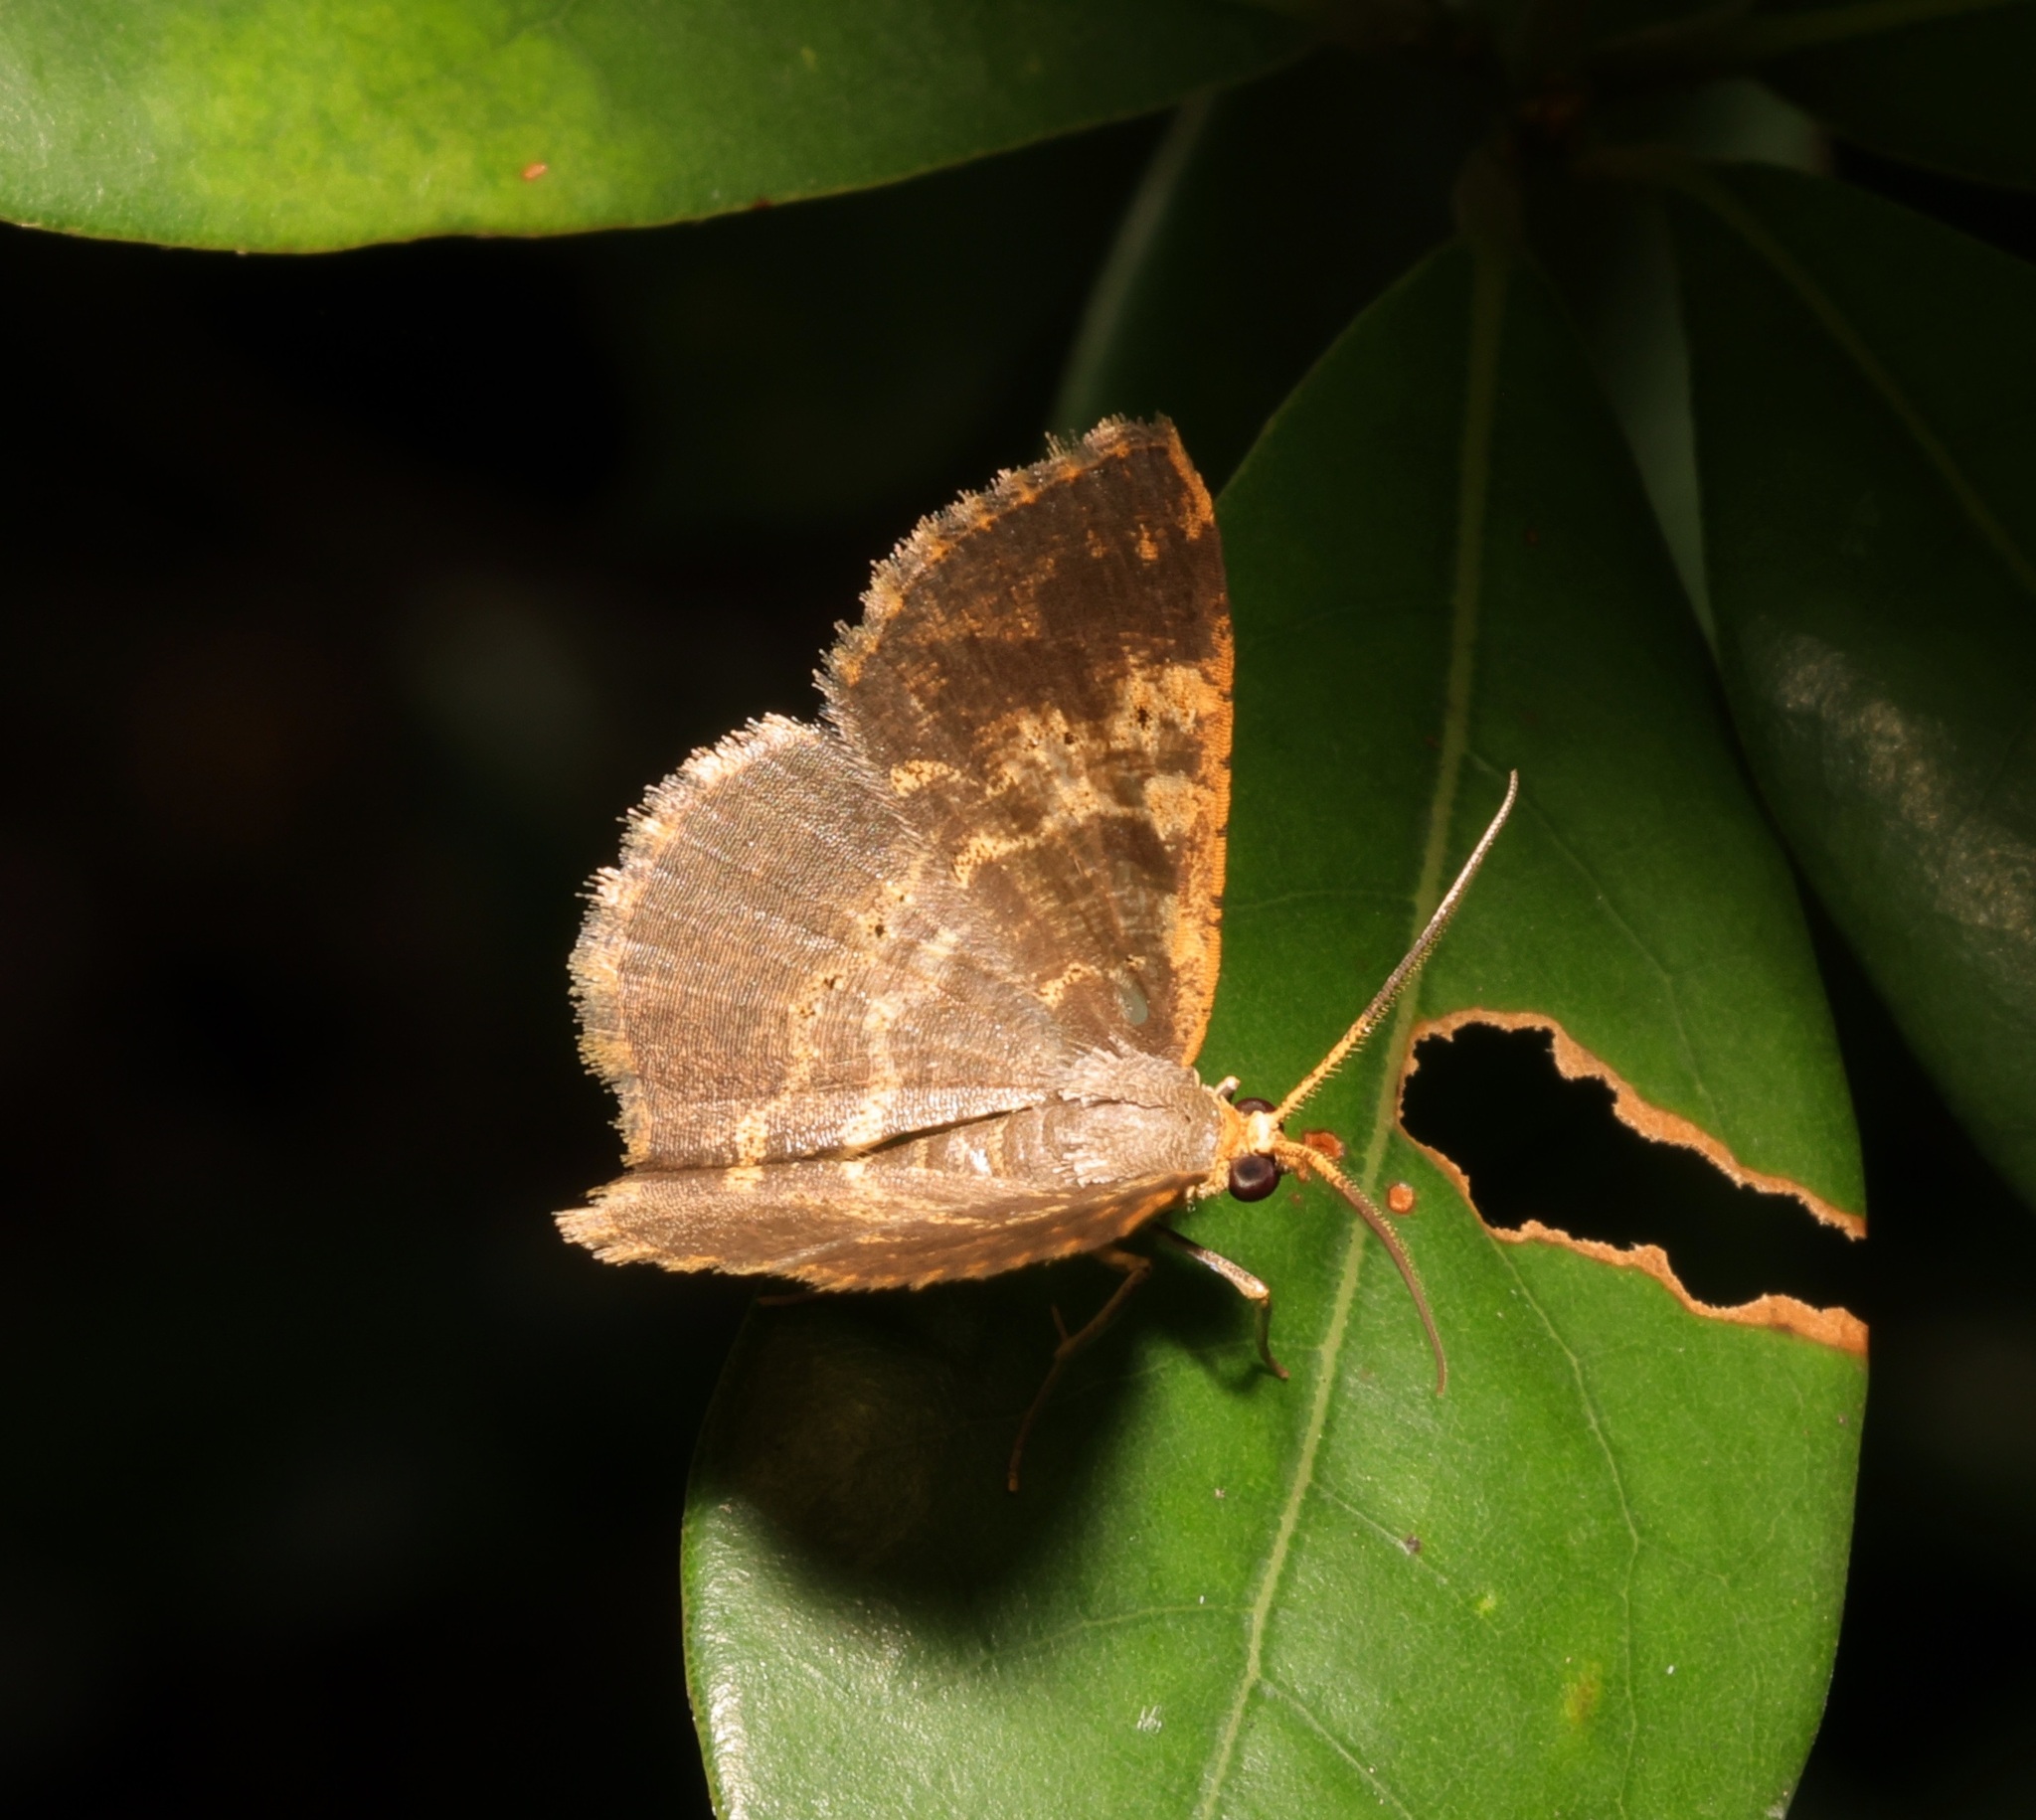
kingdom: Animalia
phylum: Arthropoda
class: Insecta
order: Lepidoptera
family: Geometridae
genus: Peratophyga
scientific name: Peratophyga crista
